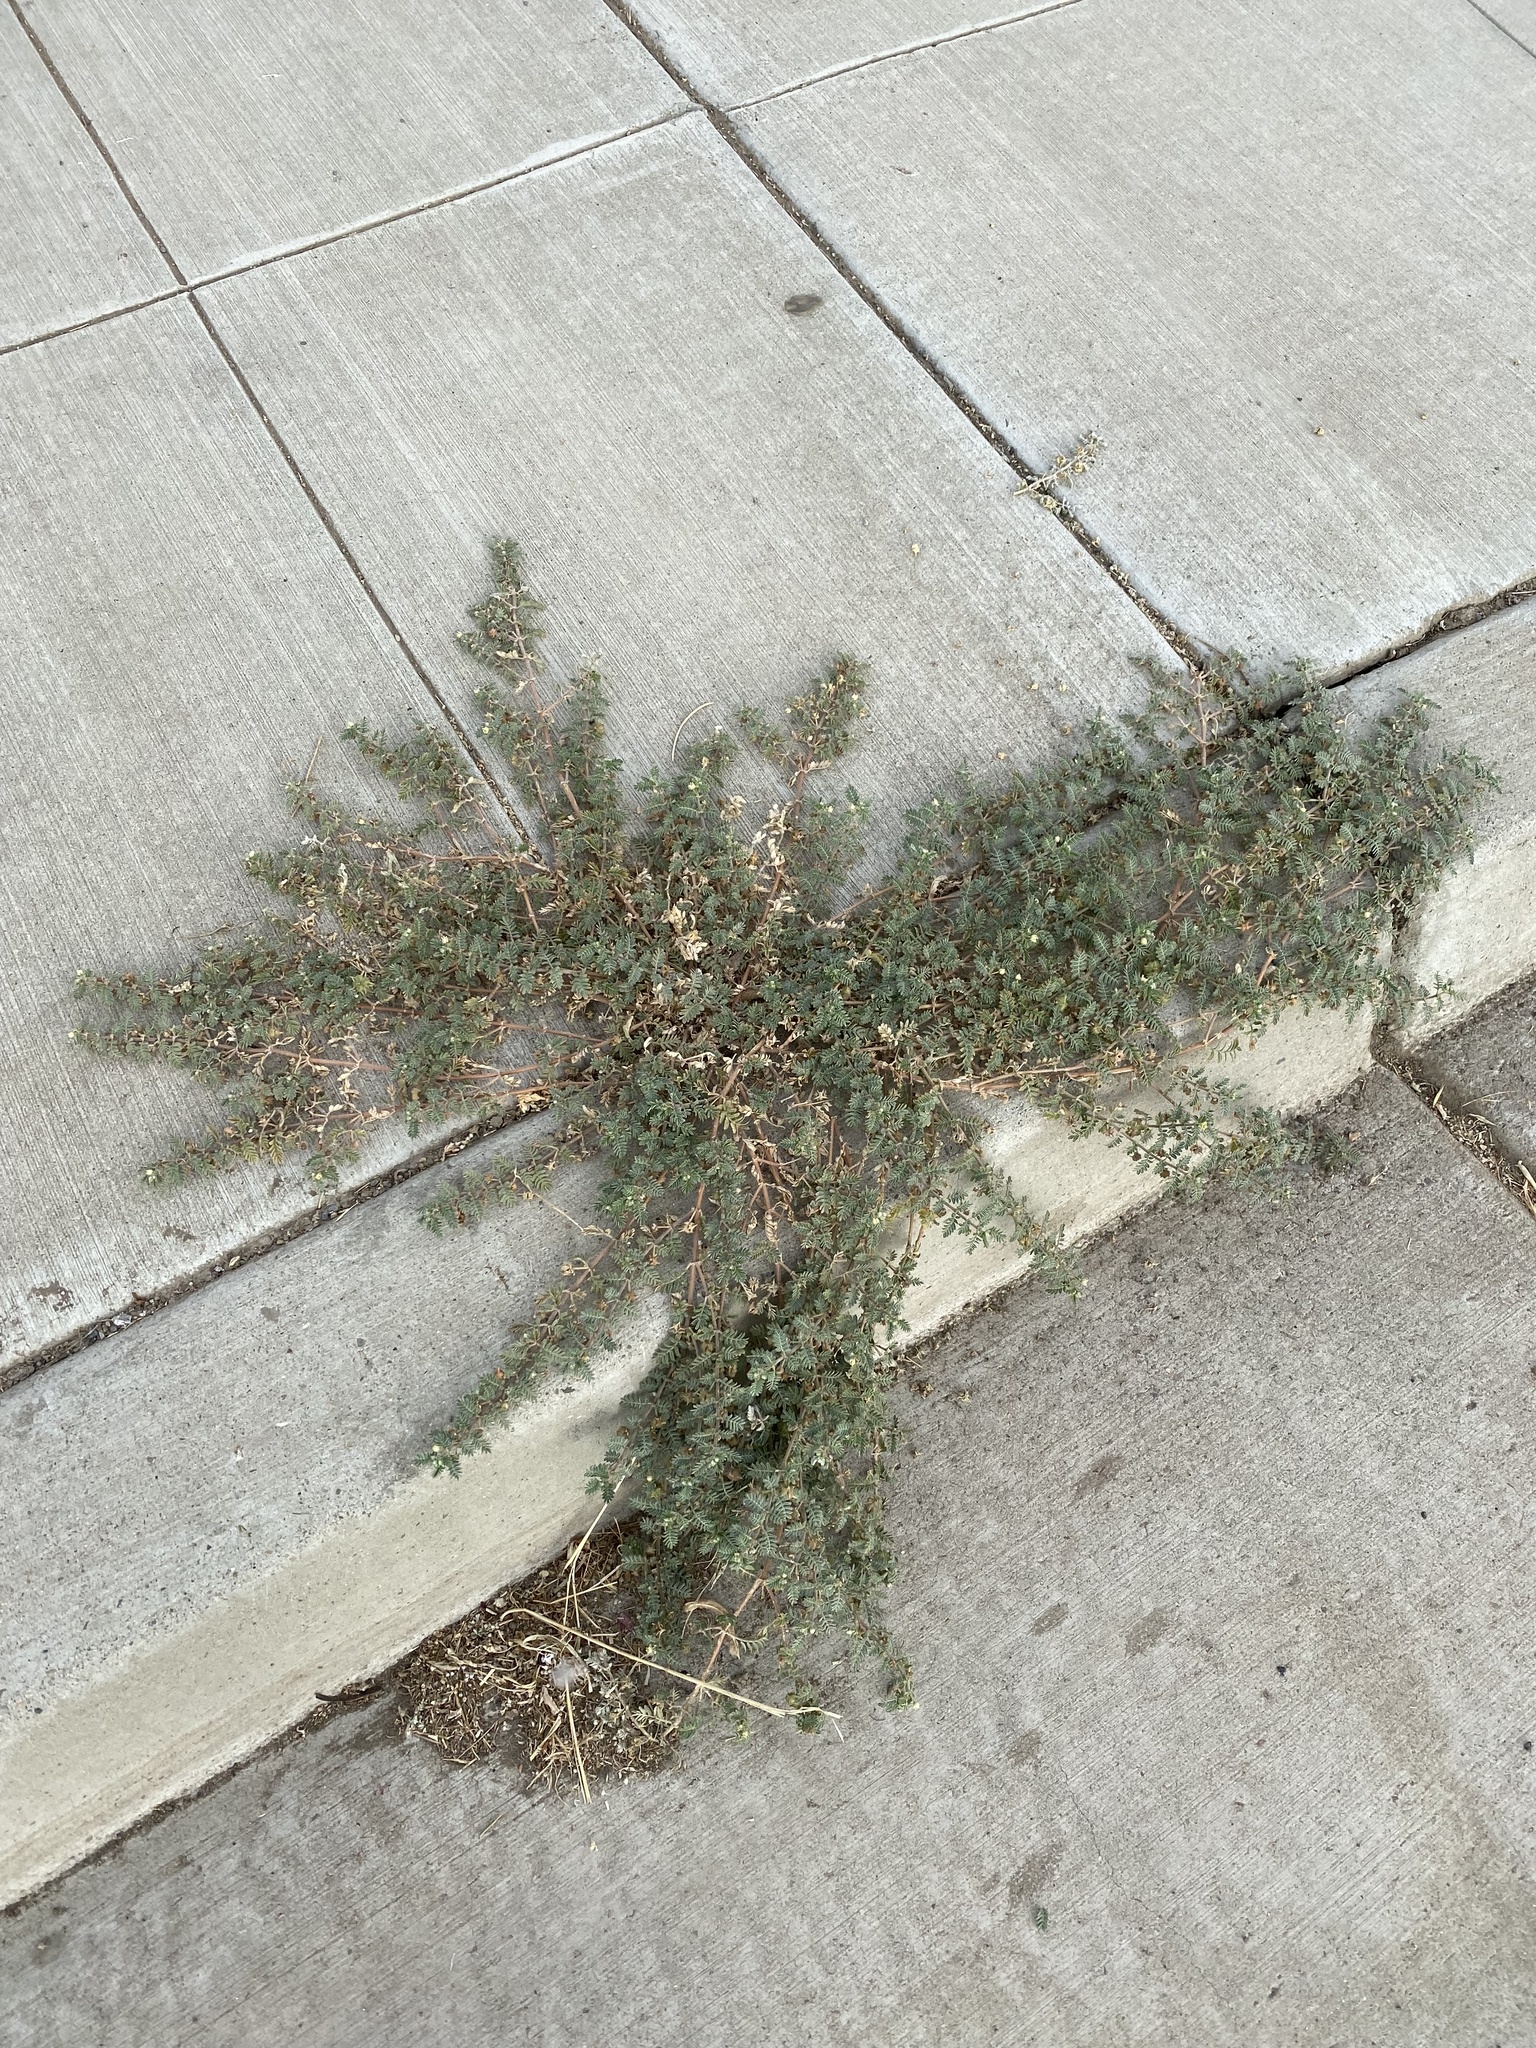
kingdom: Plantae
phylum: Tracheophyta
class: Magnoliopsida
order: Zygophyllales
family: Zygophyllaceae
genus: Tribulus
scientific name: Tribulus terrestris
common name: Puncturevine
